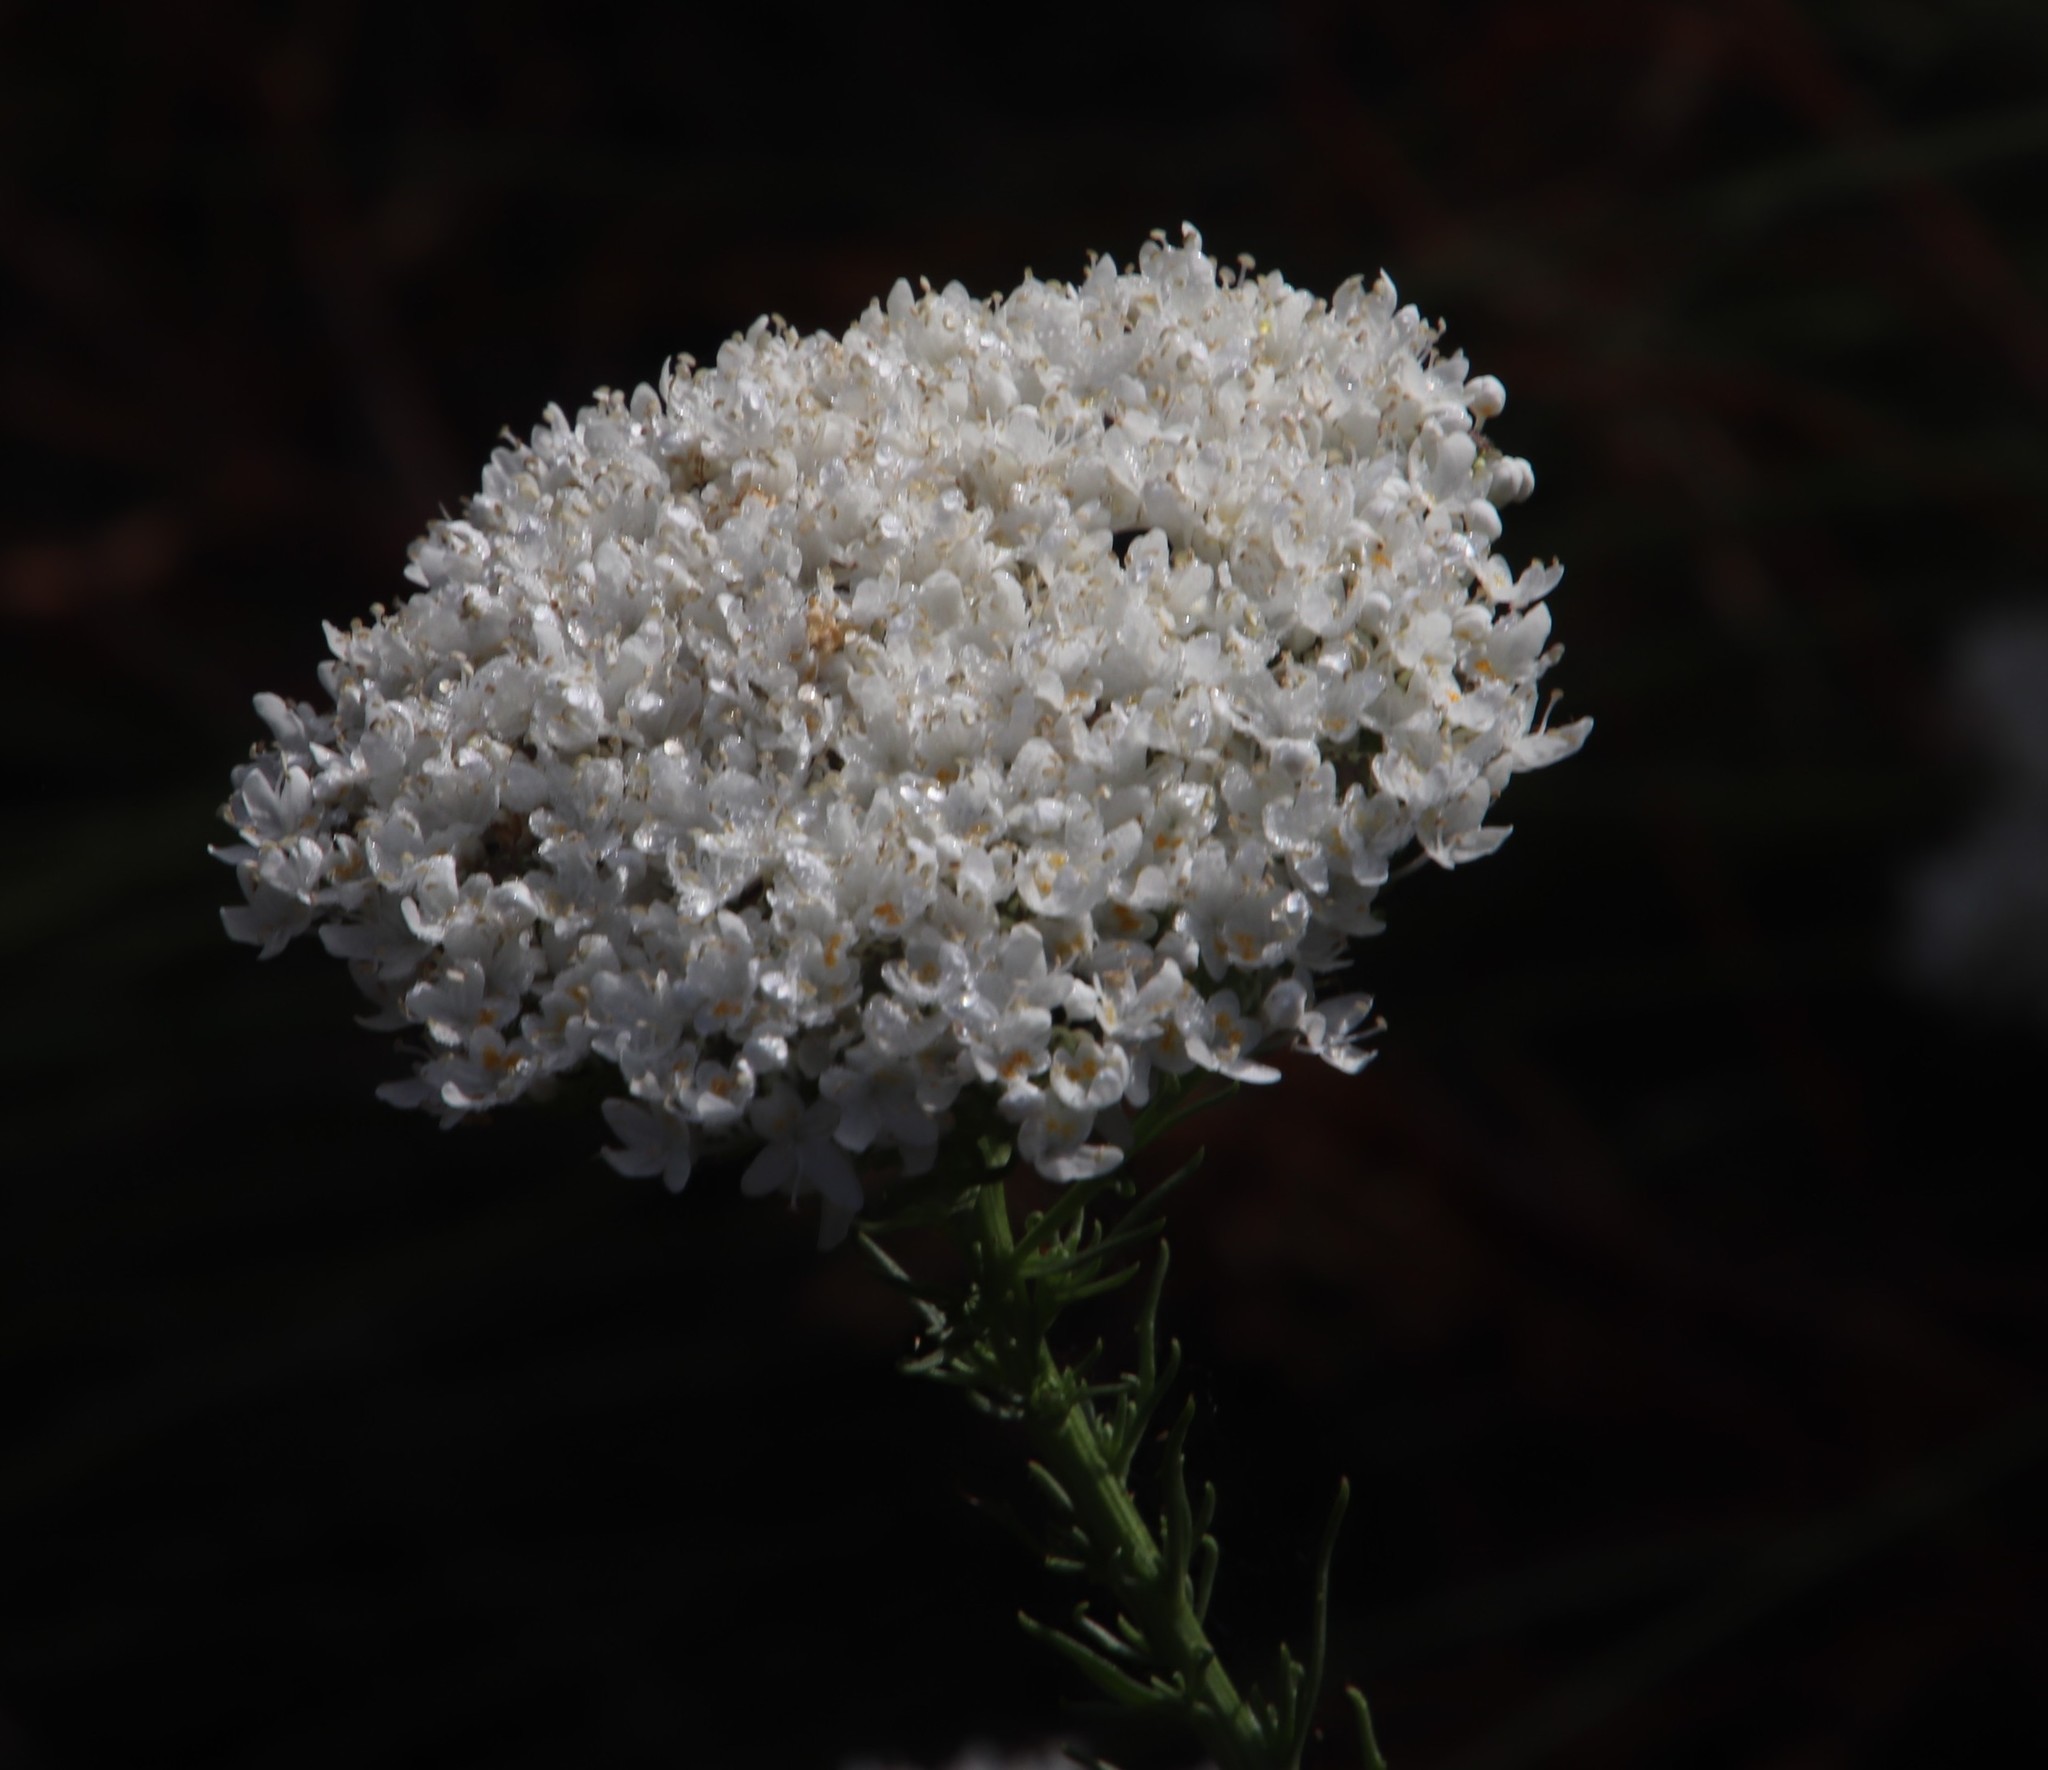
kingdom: Plantae
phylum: Tracheophyta
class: Magnoliopsida
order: Lamiales
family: Scrophulariaceae
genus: Selago
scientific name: Selago corymbosa
